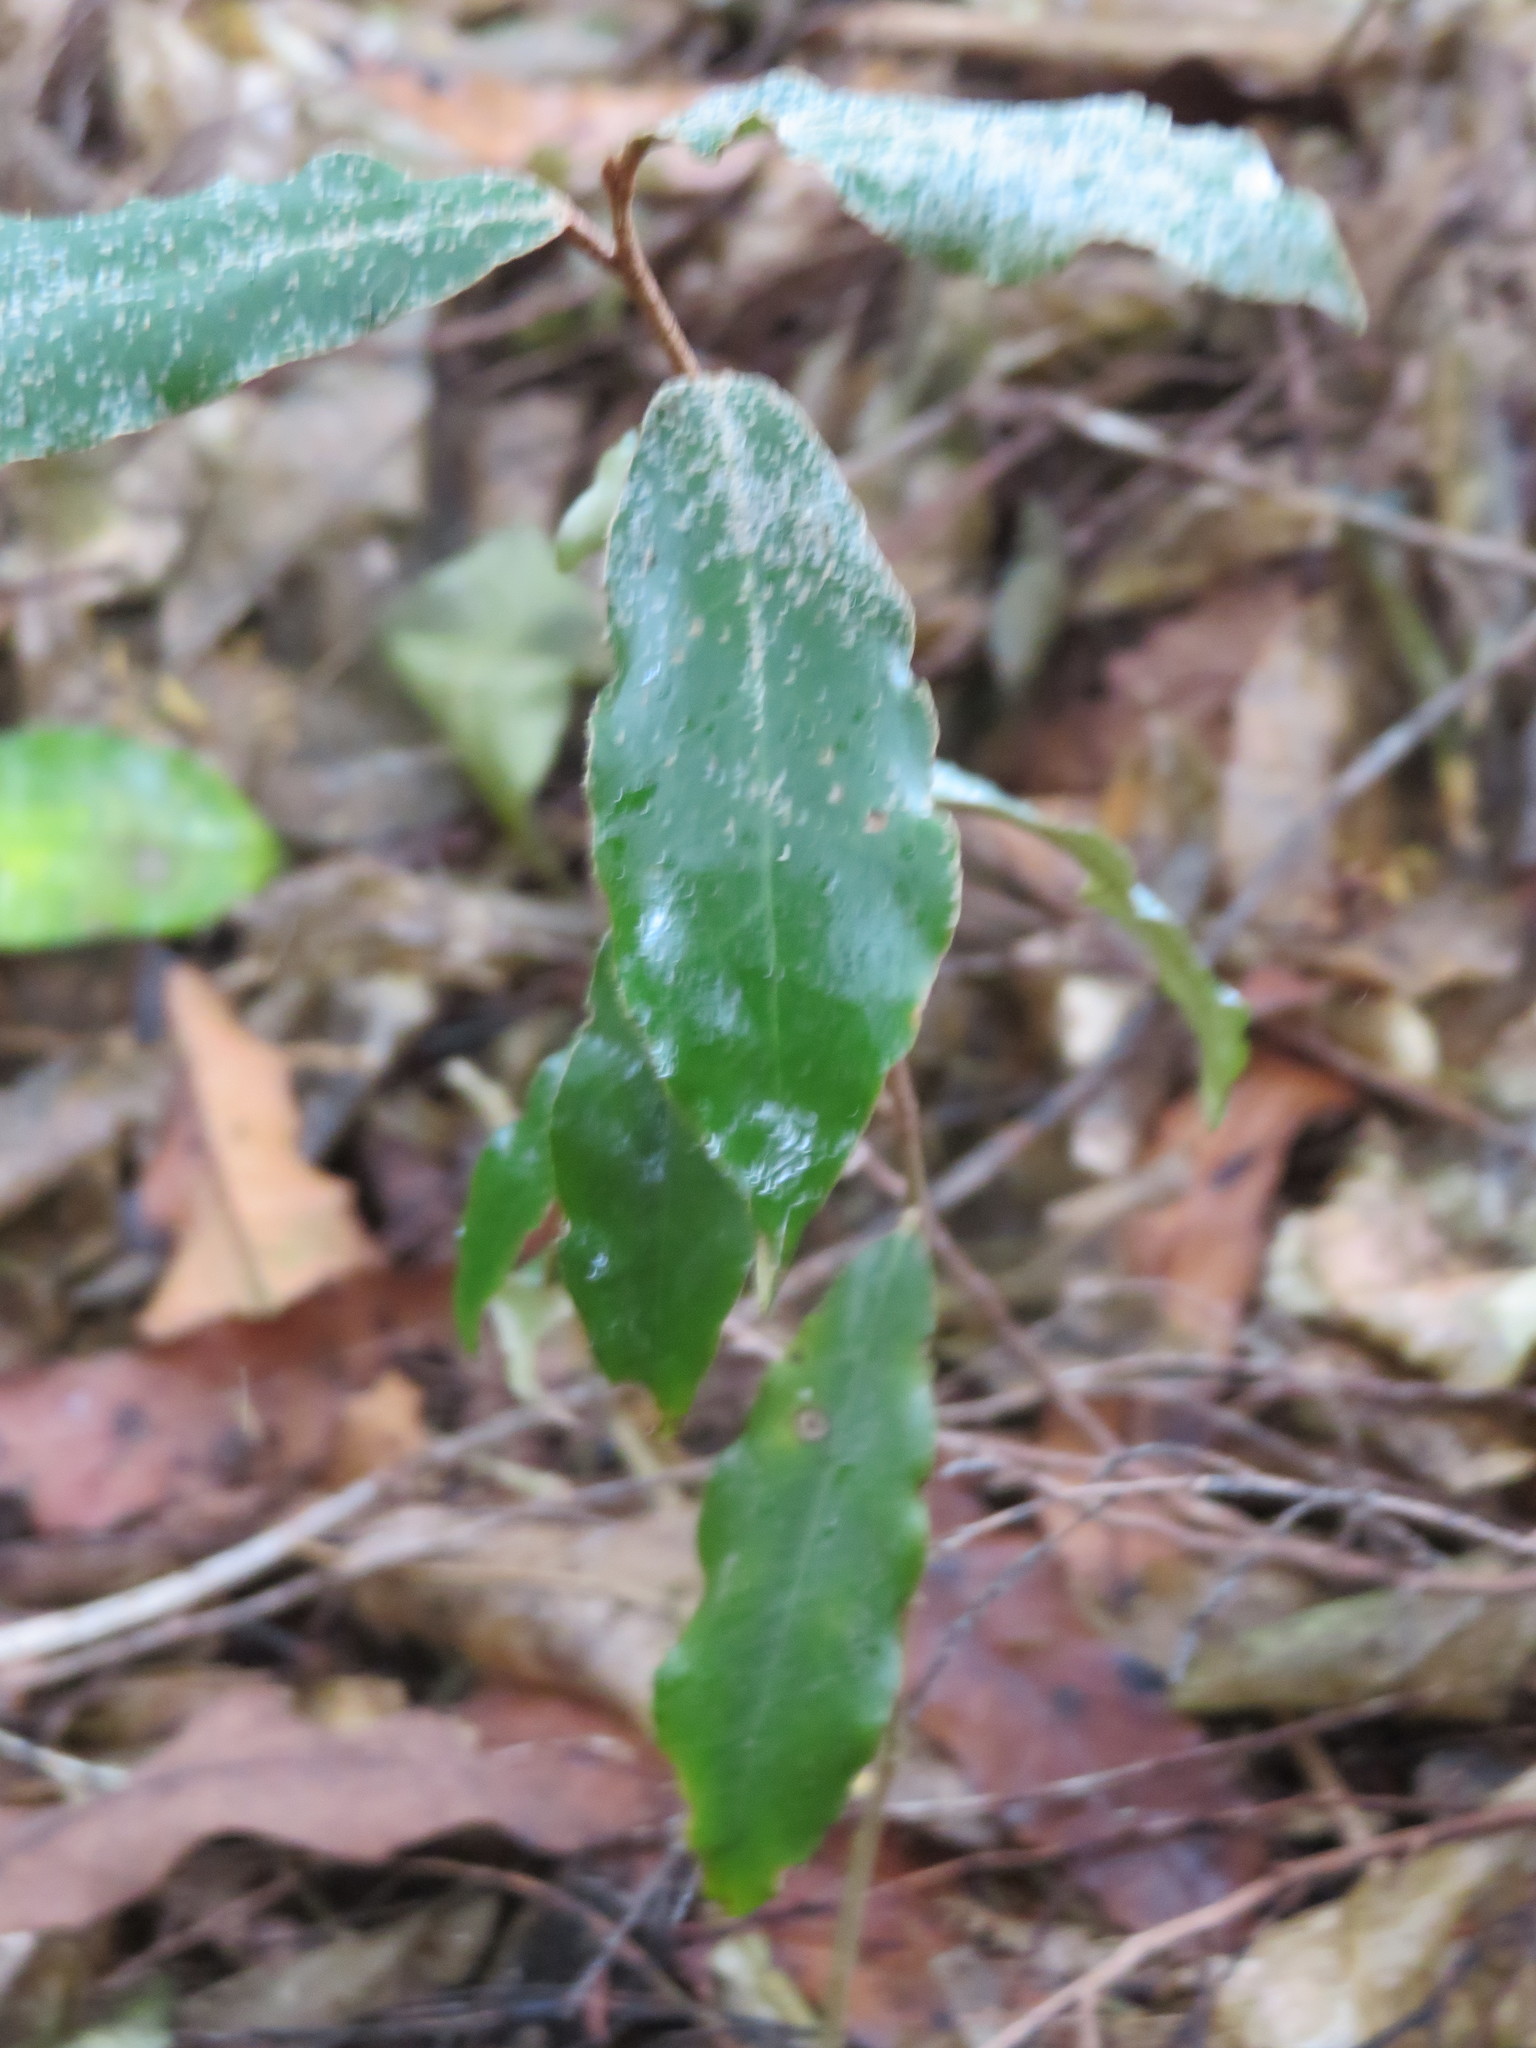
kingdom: Plantae
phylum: Tracheophyta
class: Magnoliopsida
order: Rosales
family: Elaeagnaceae
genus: Elaeagnus
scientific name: Elaeagnus reflexa
